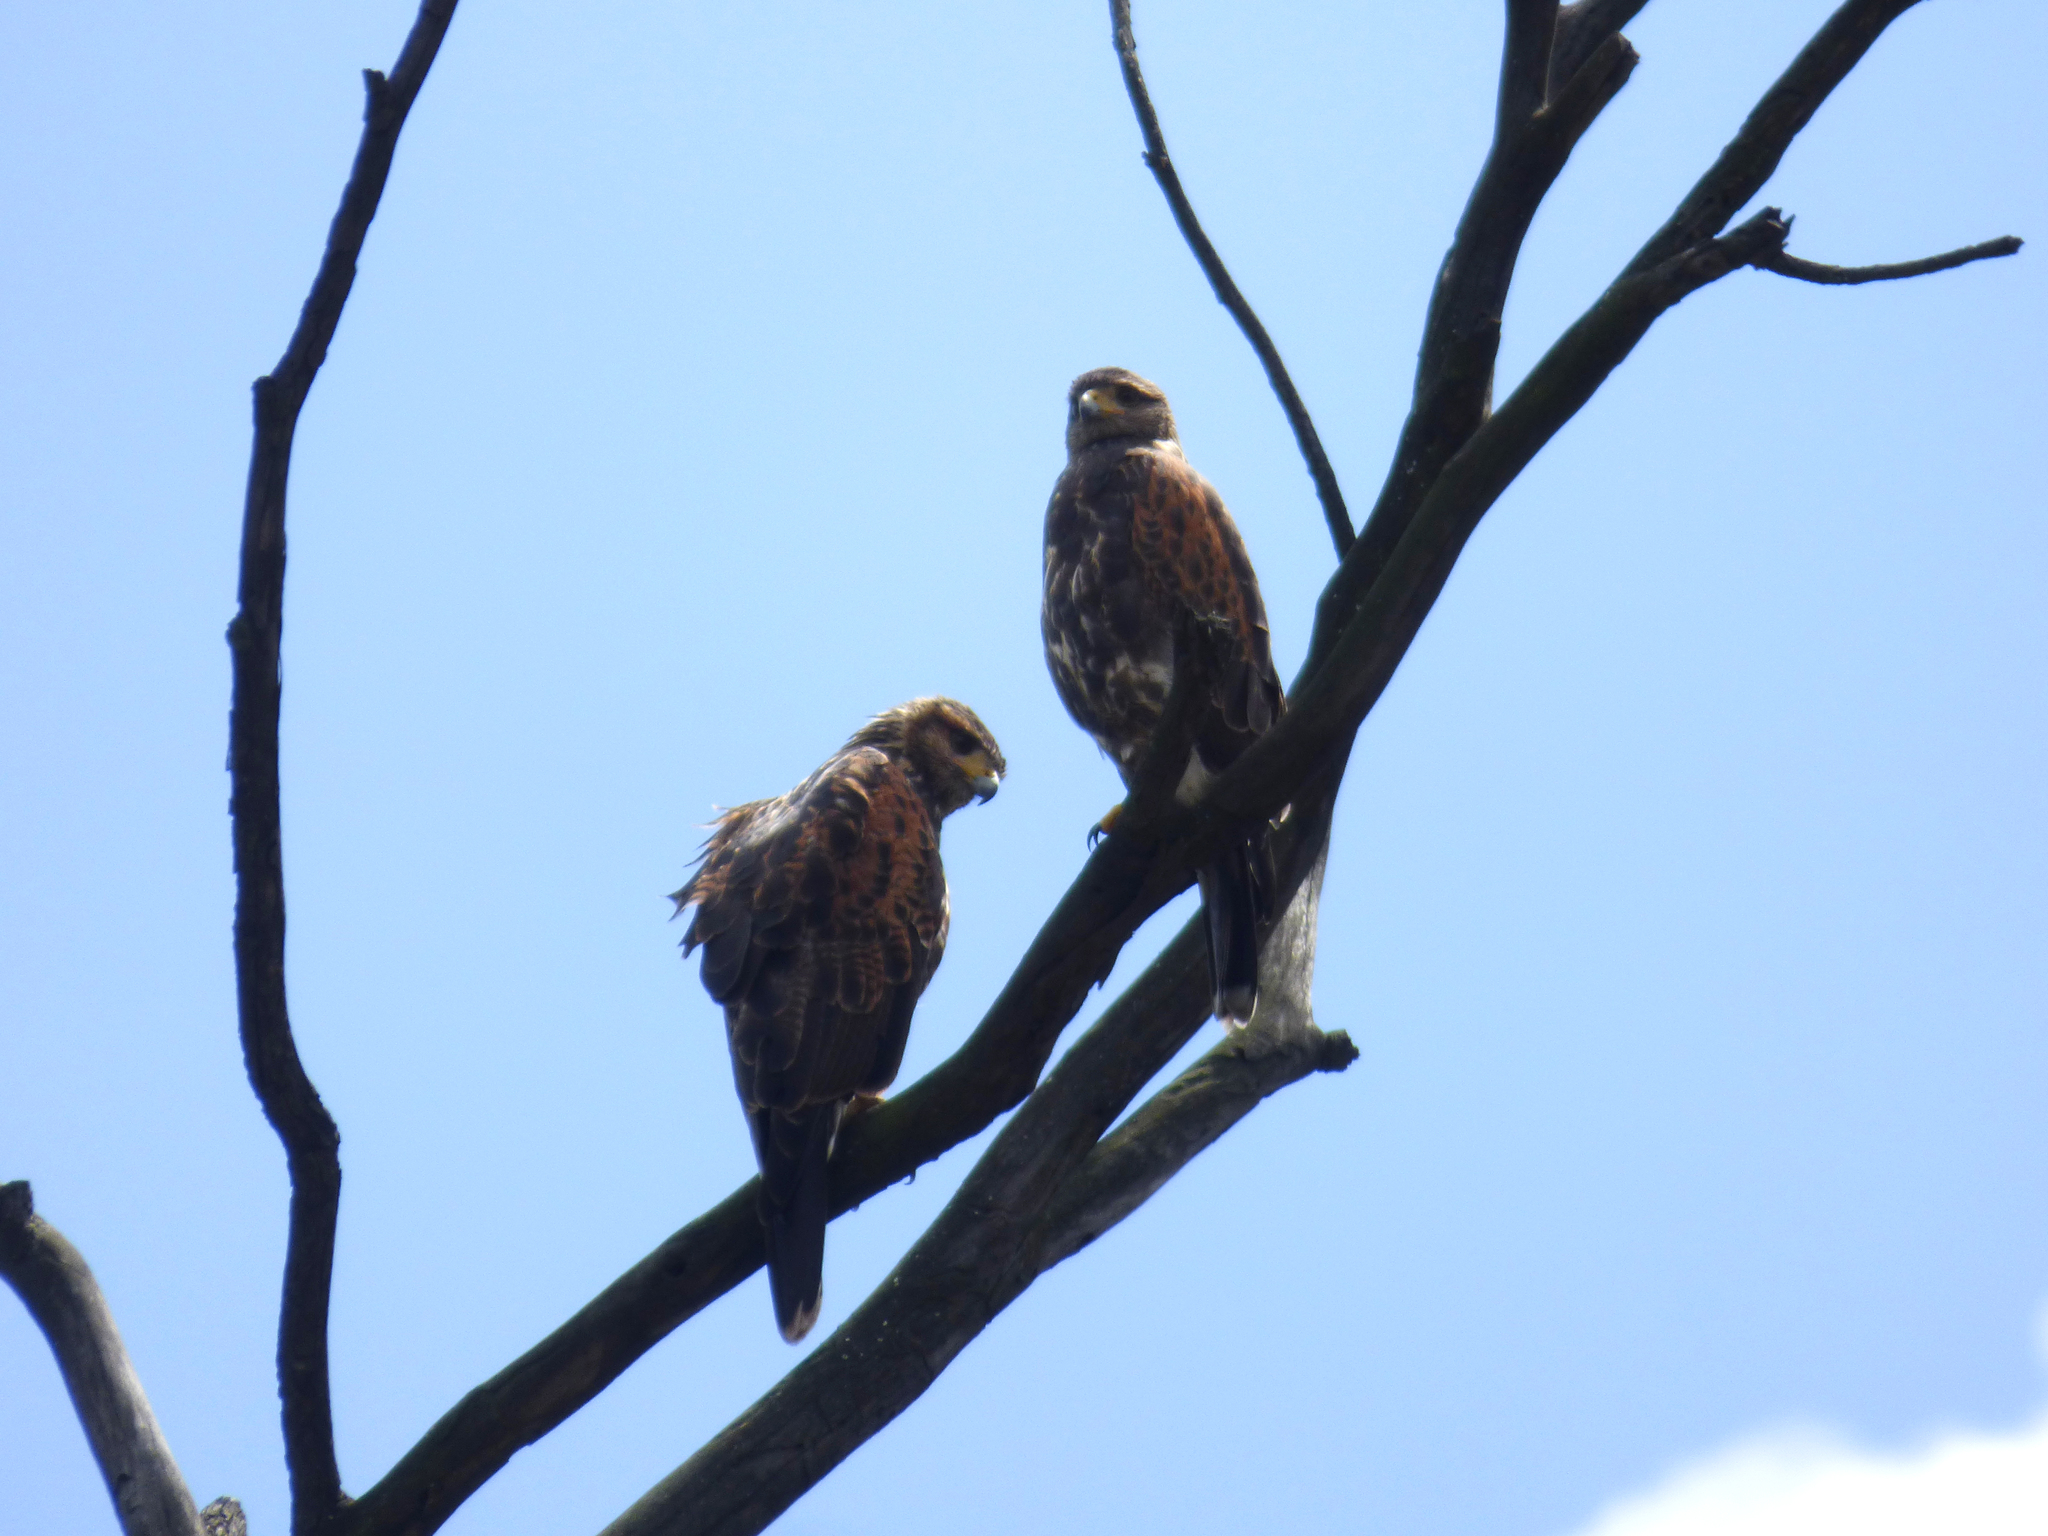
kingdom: Animalia
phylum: Chordata
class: Aves
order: Accipitriformes
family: Accipitridae
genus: Parabuteo
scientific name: Parabuteo unicinctus
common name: Harris's hawk
